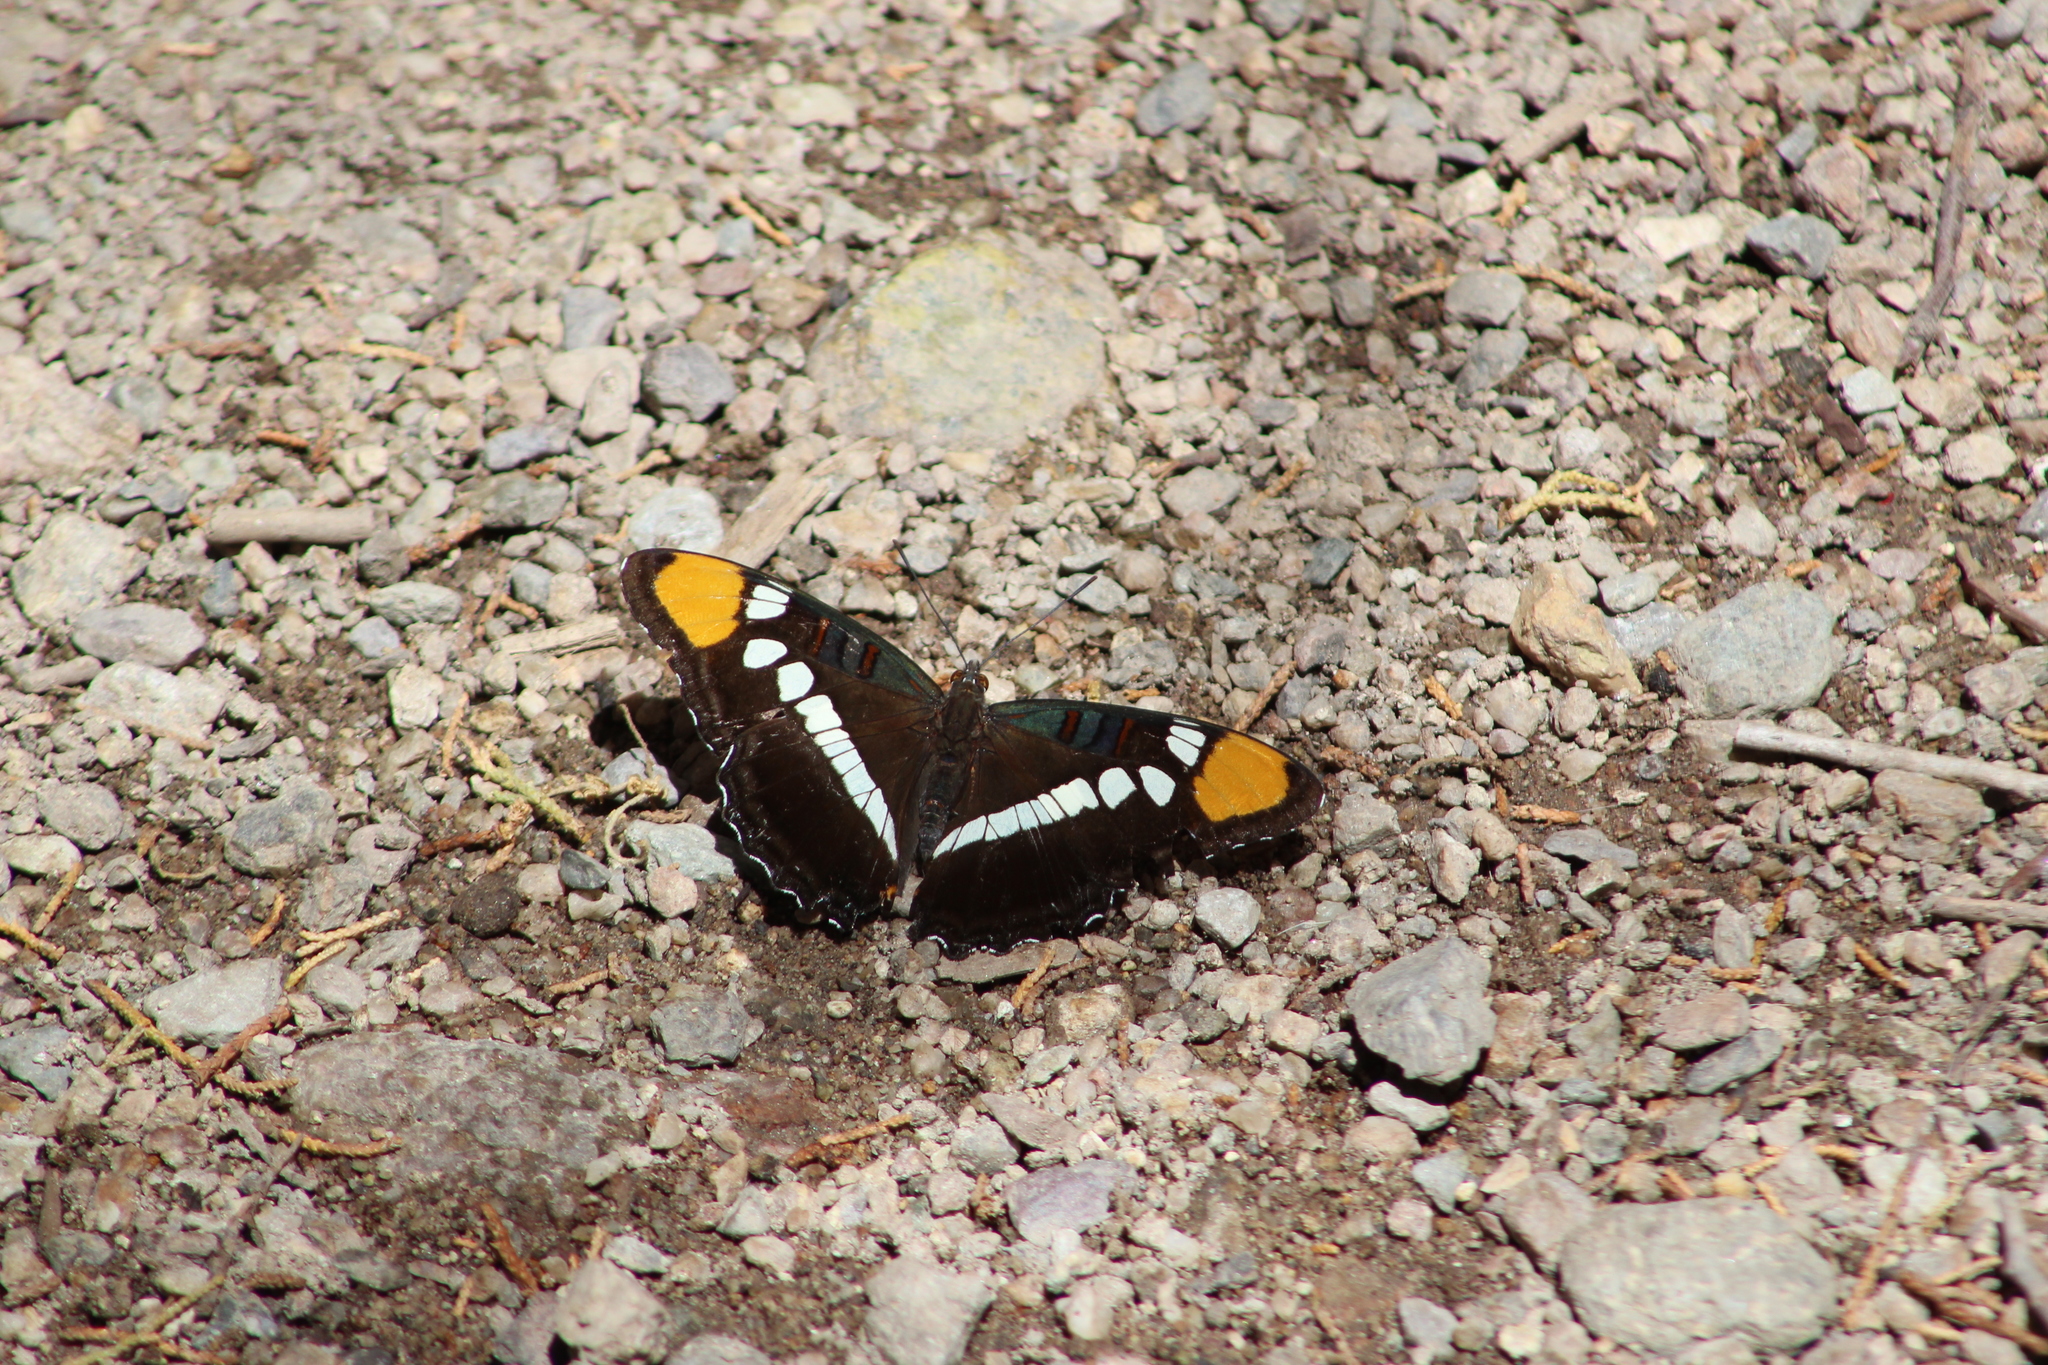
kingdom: Animalia
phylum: Arthropoda
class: Insecta
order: Lepidoptera
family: Nymphalidae
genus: Limenitis
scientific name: Limenitis bredowii
